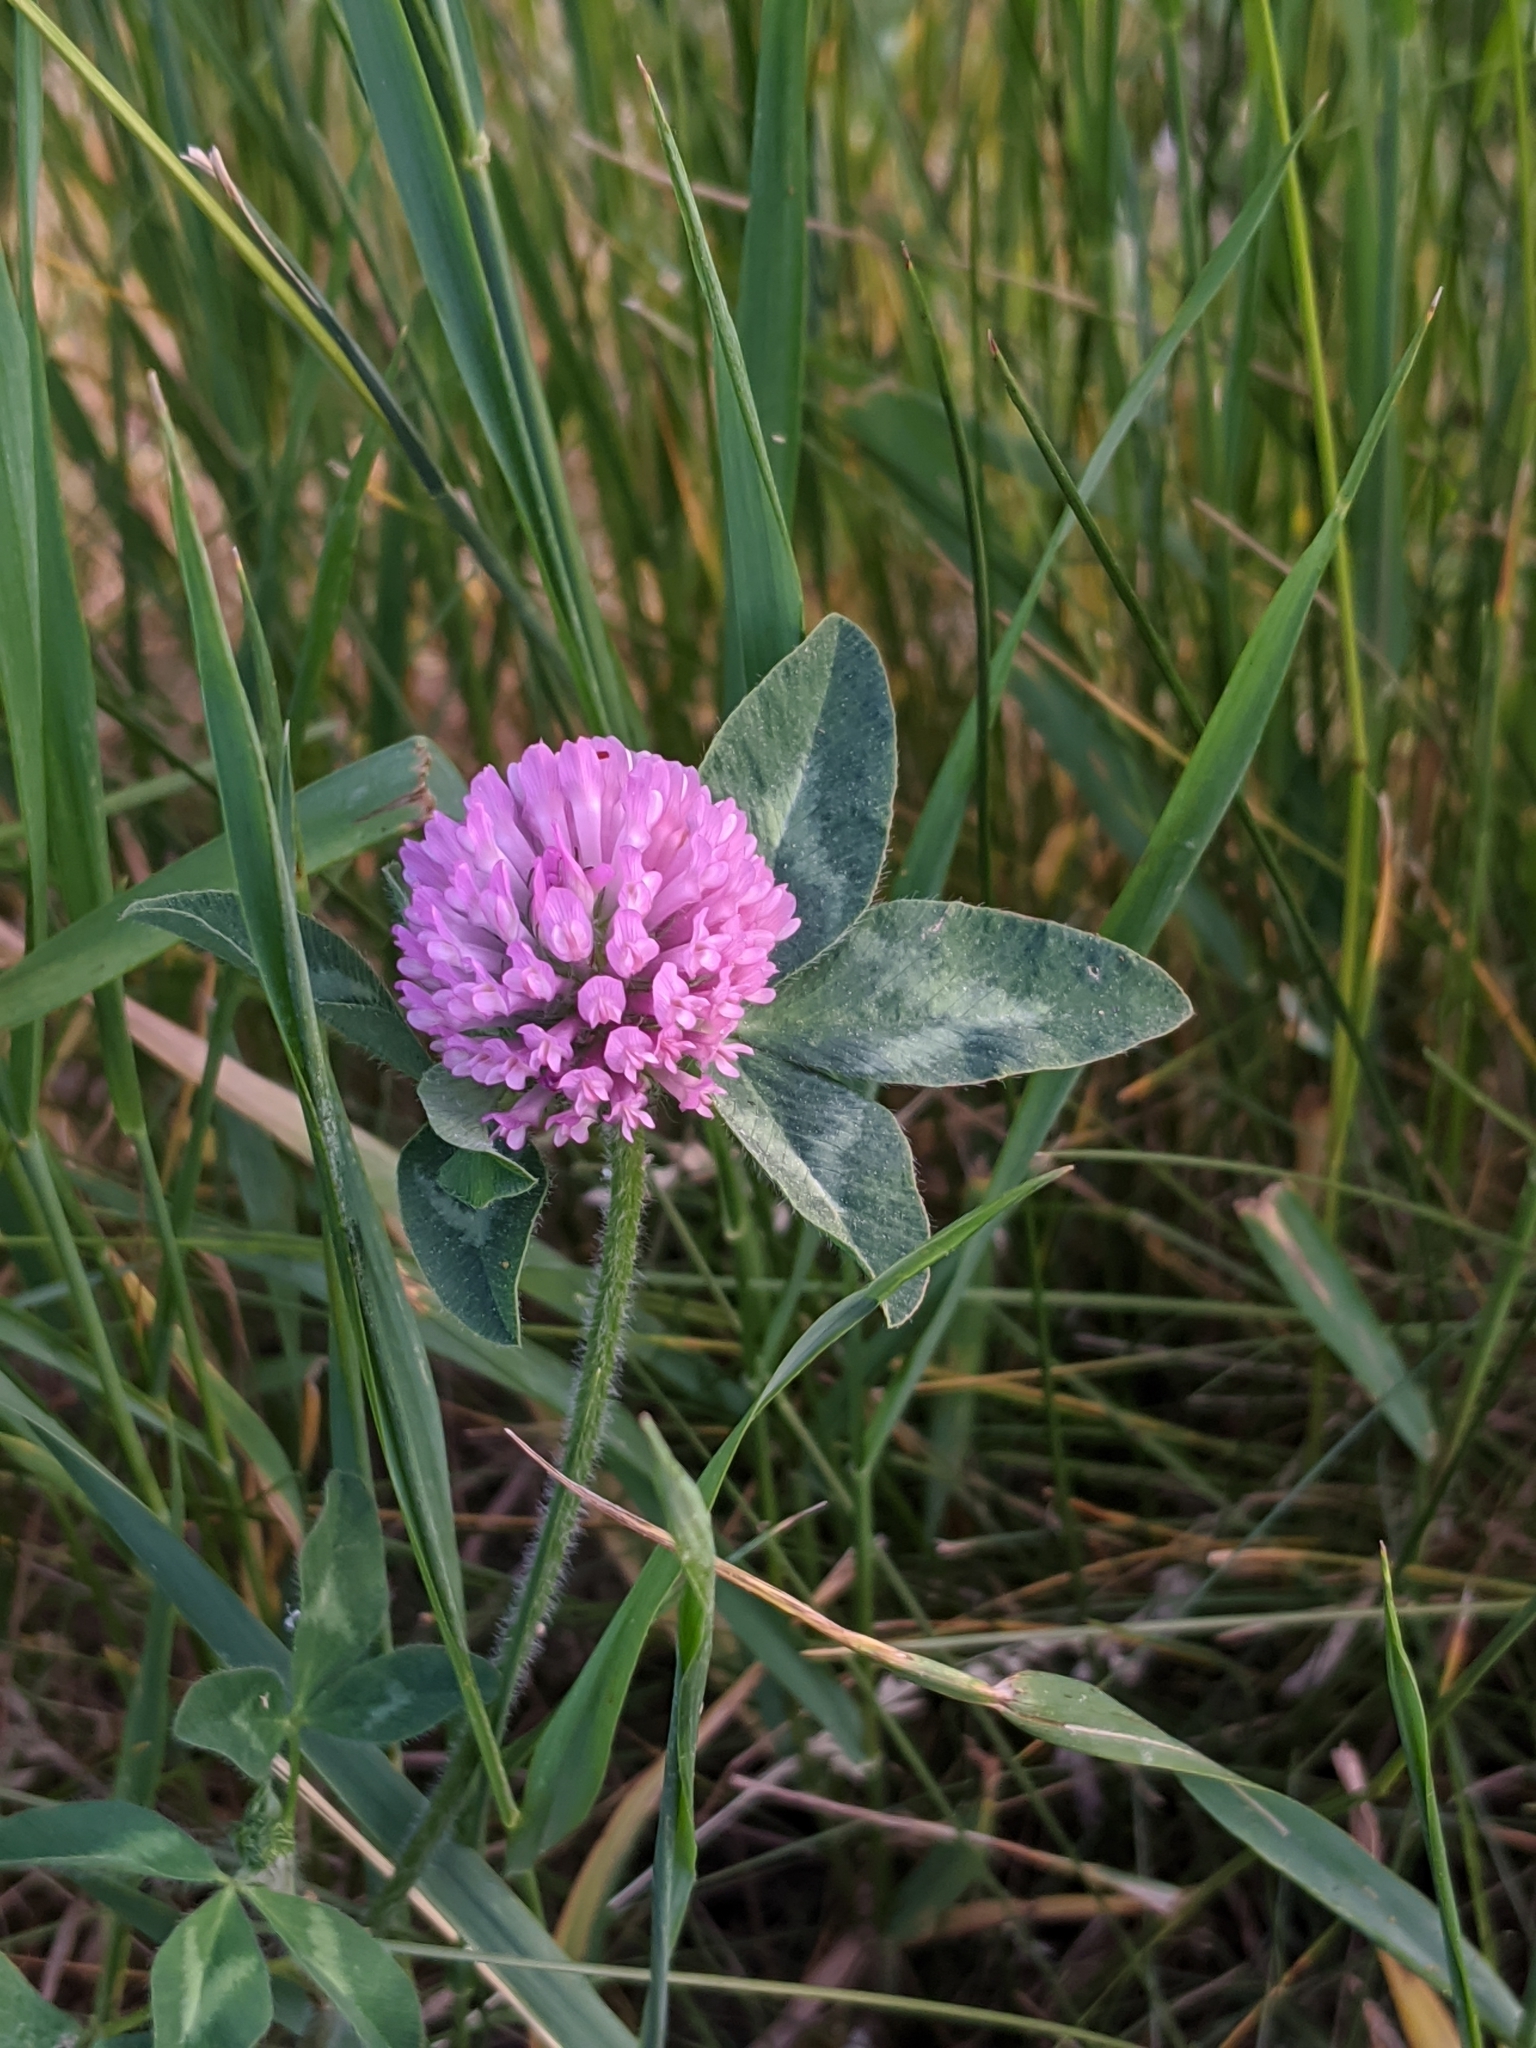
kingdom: Plantae
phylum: Tracheophyta
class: Magnoliopsida
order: Fabales
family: Fabaceae
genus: Trifolium
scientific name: Trifolium pratense
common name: Red clover
